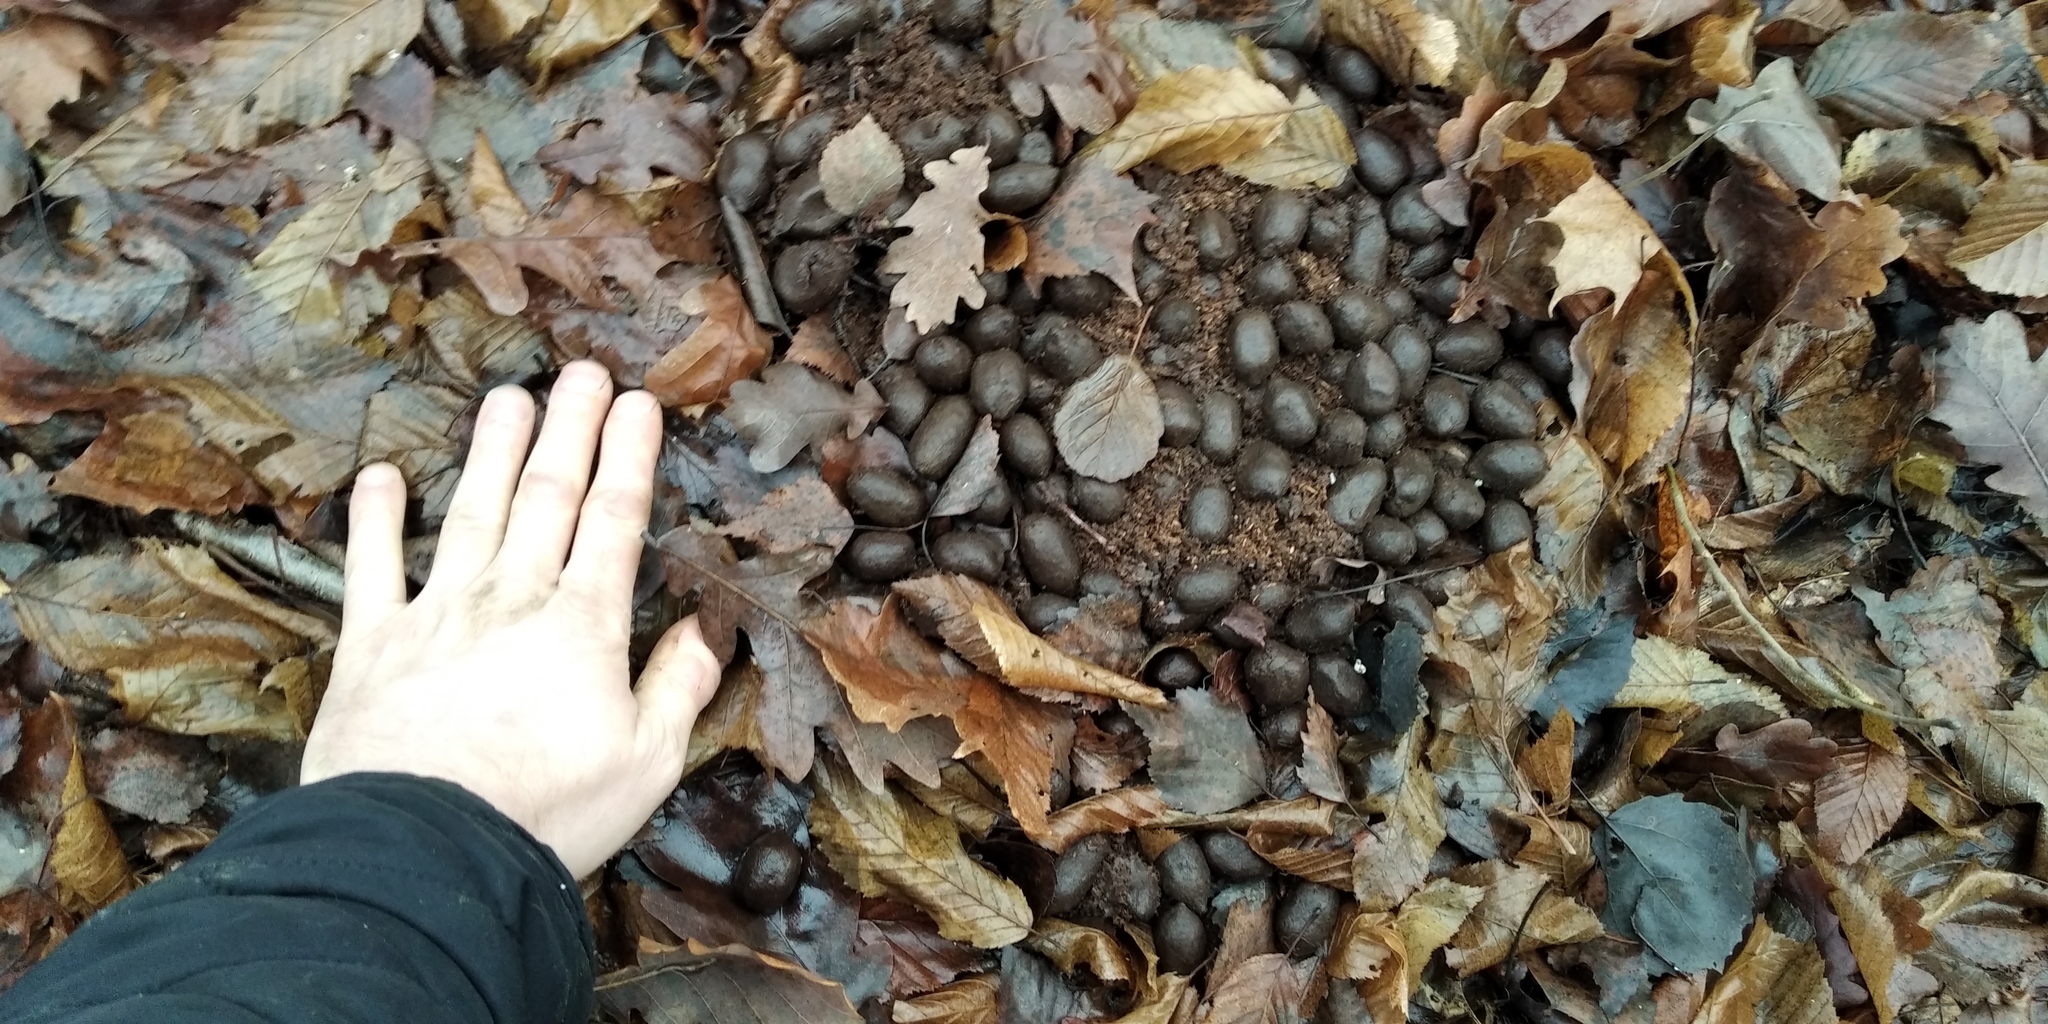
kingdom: Animalia
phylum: Chordata
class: Mammalia
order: Artiodactyla
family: Cervidae
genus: Alces
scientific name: Alces alces
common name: Moose
